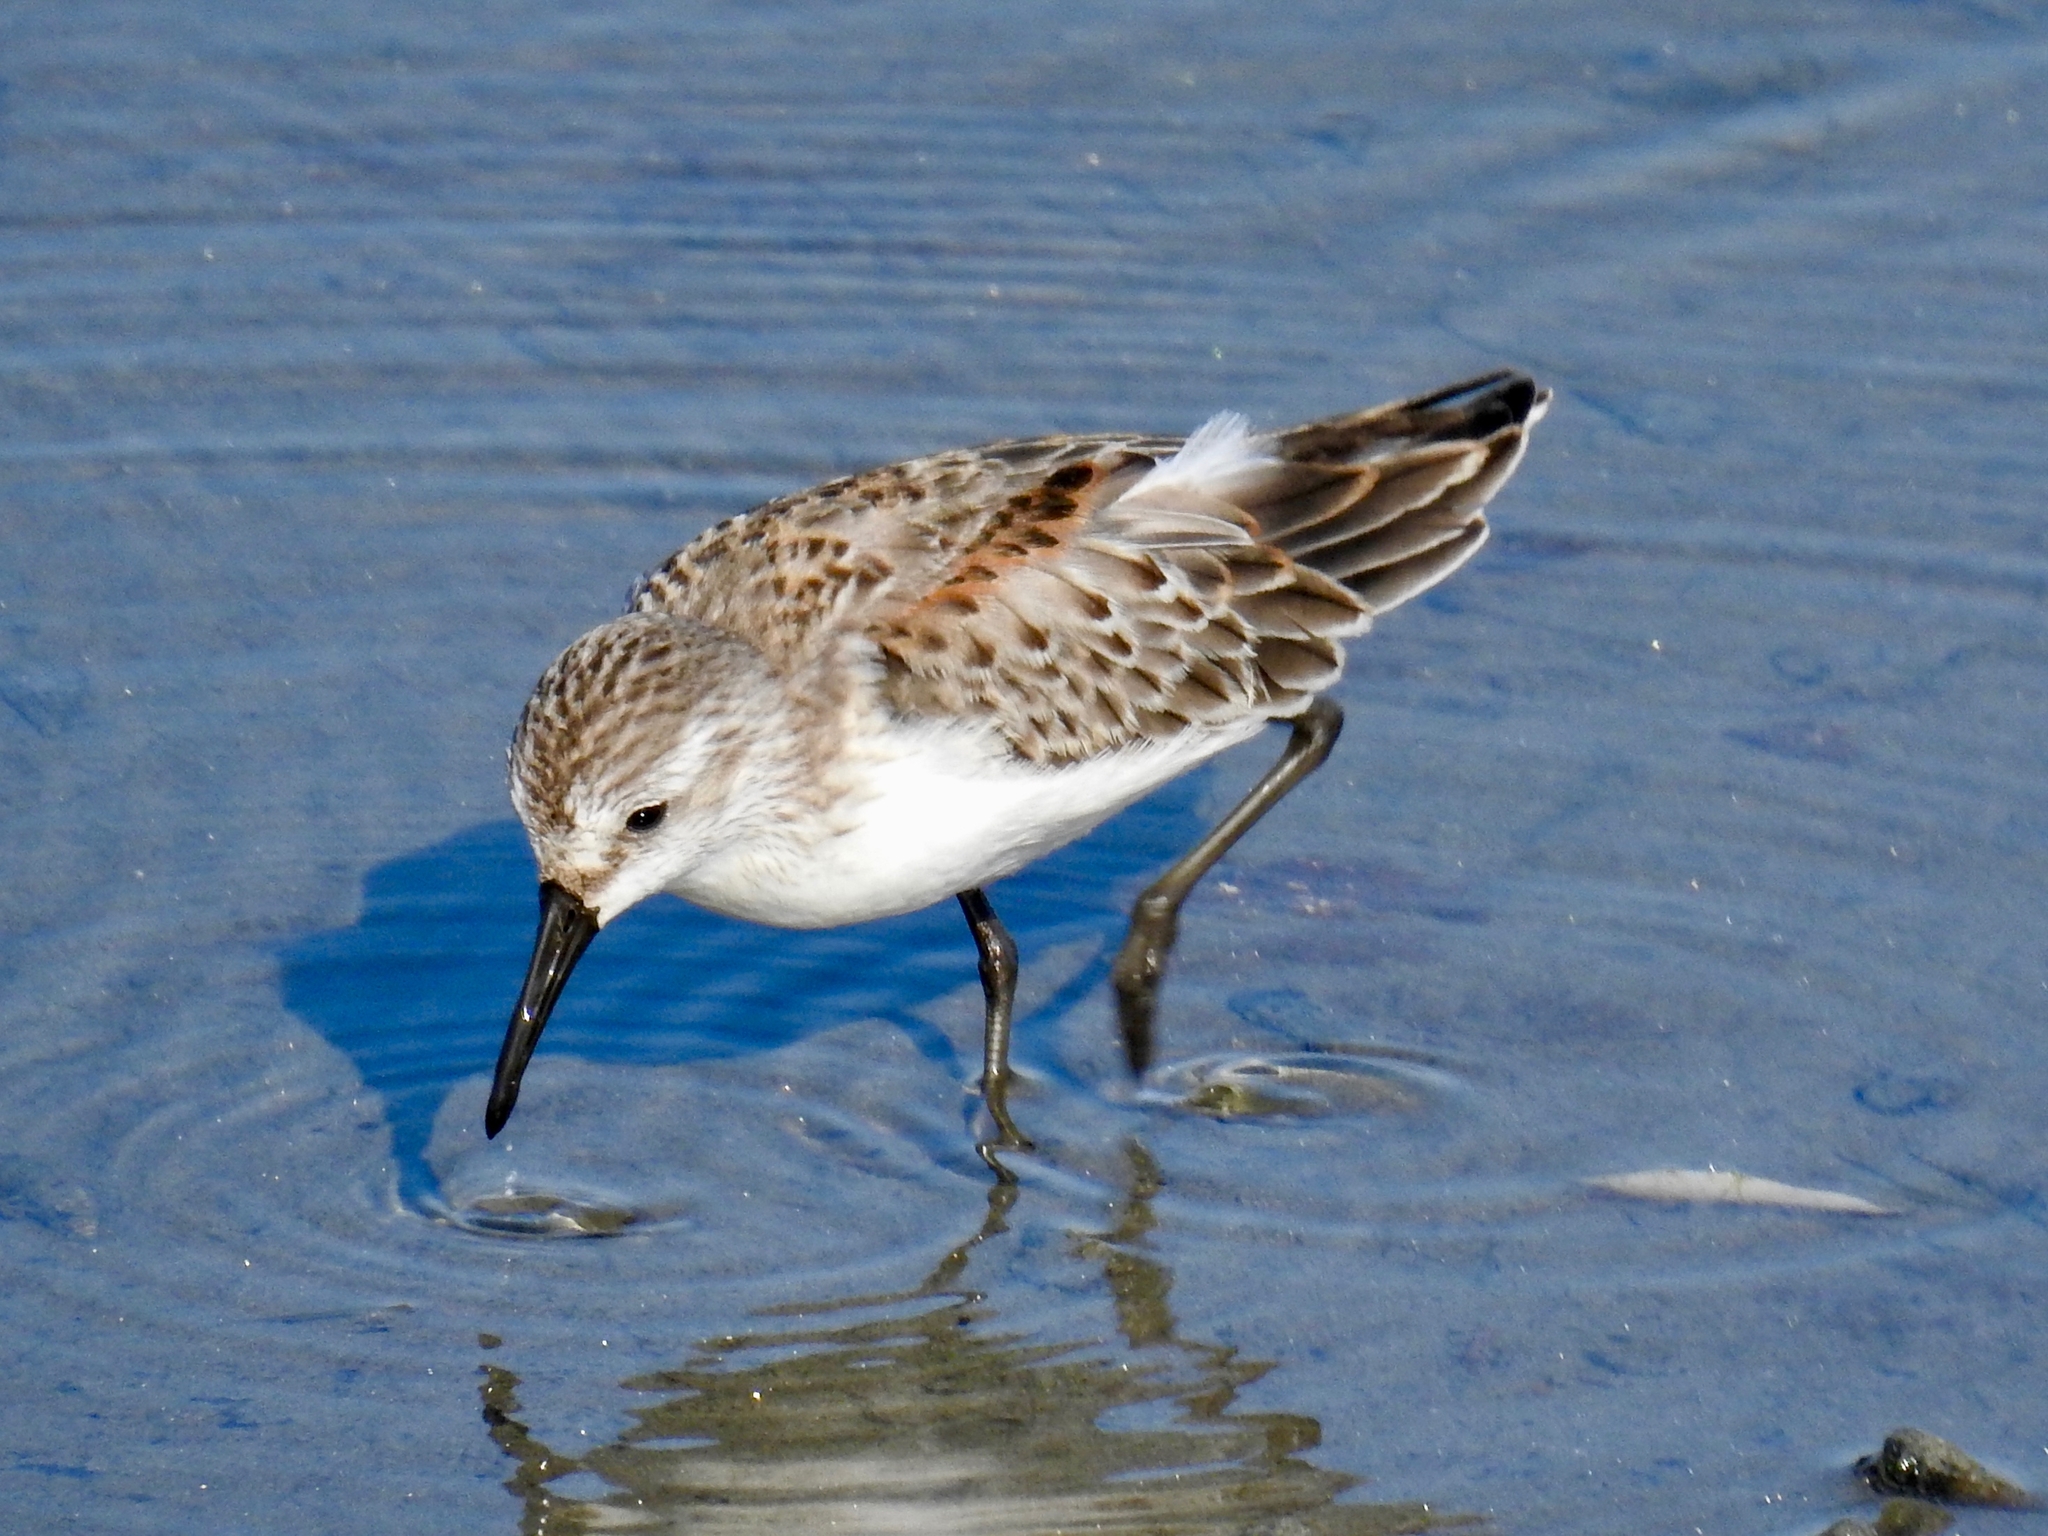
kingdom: Animalia
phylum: Chordata
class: Aves
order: Charadriiformes
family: Scolopacidae
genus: Calidris
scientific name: Calidris mauri
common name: Western sandpiper
